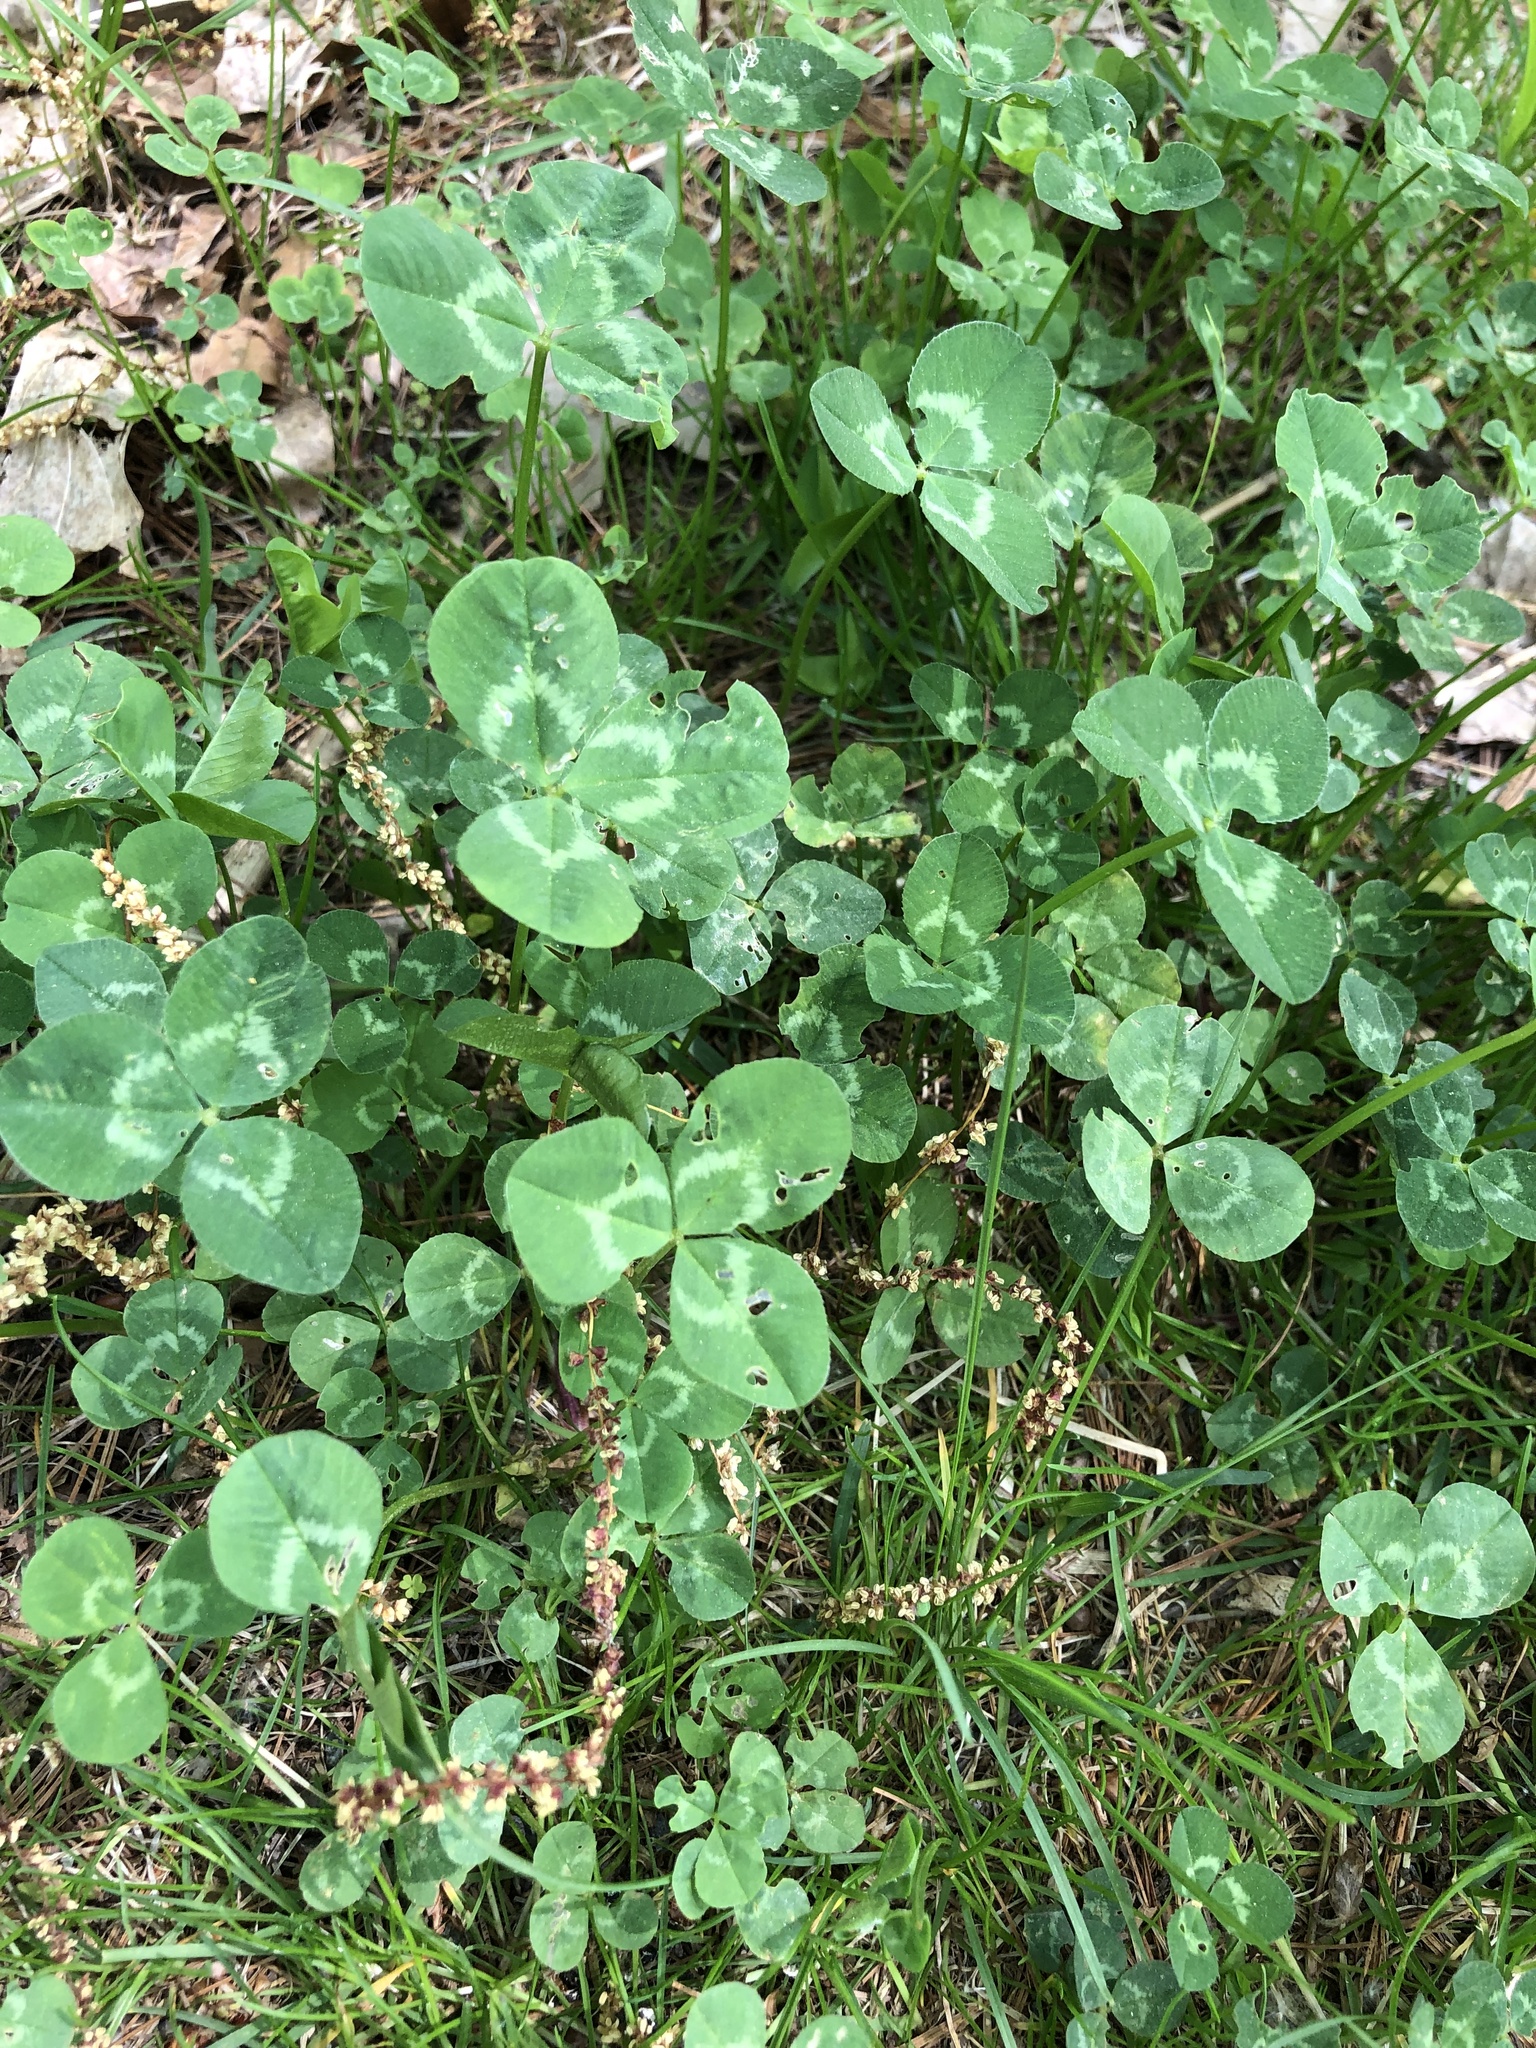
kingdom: Plantae
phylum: Tracheophyta
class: Magnoliopsida
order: Fabales
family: Fabaceae
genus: Trifolium
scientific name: Trifolium repens
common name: White clover
